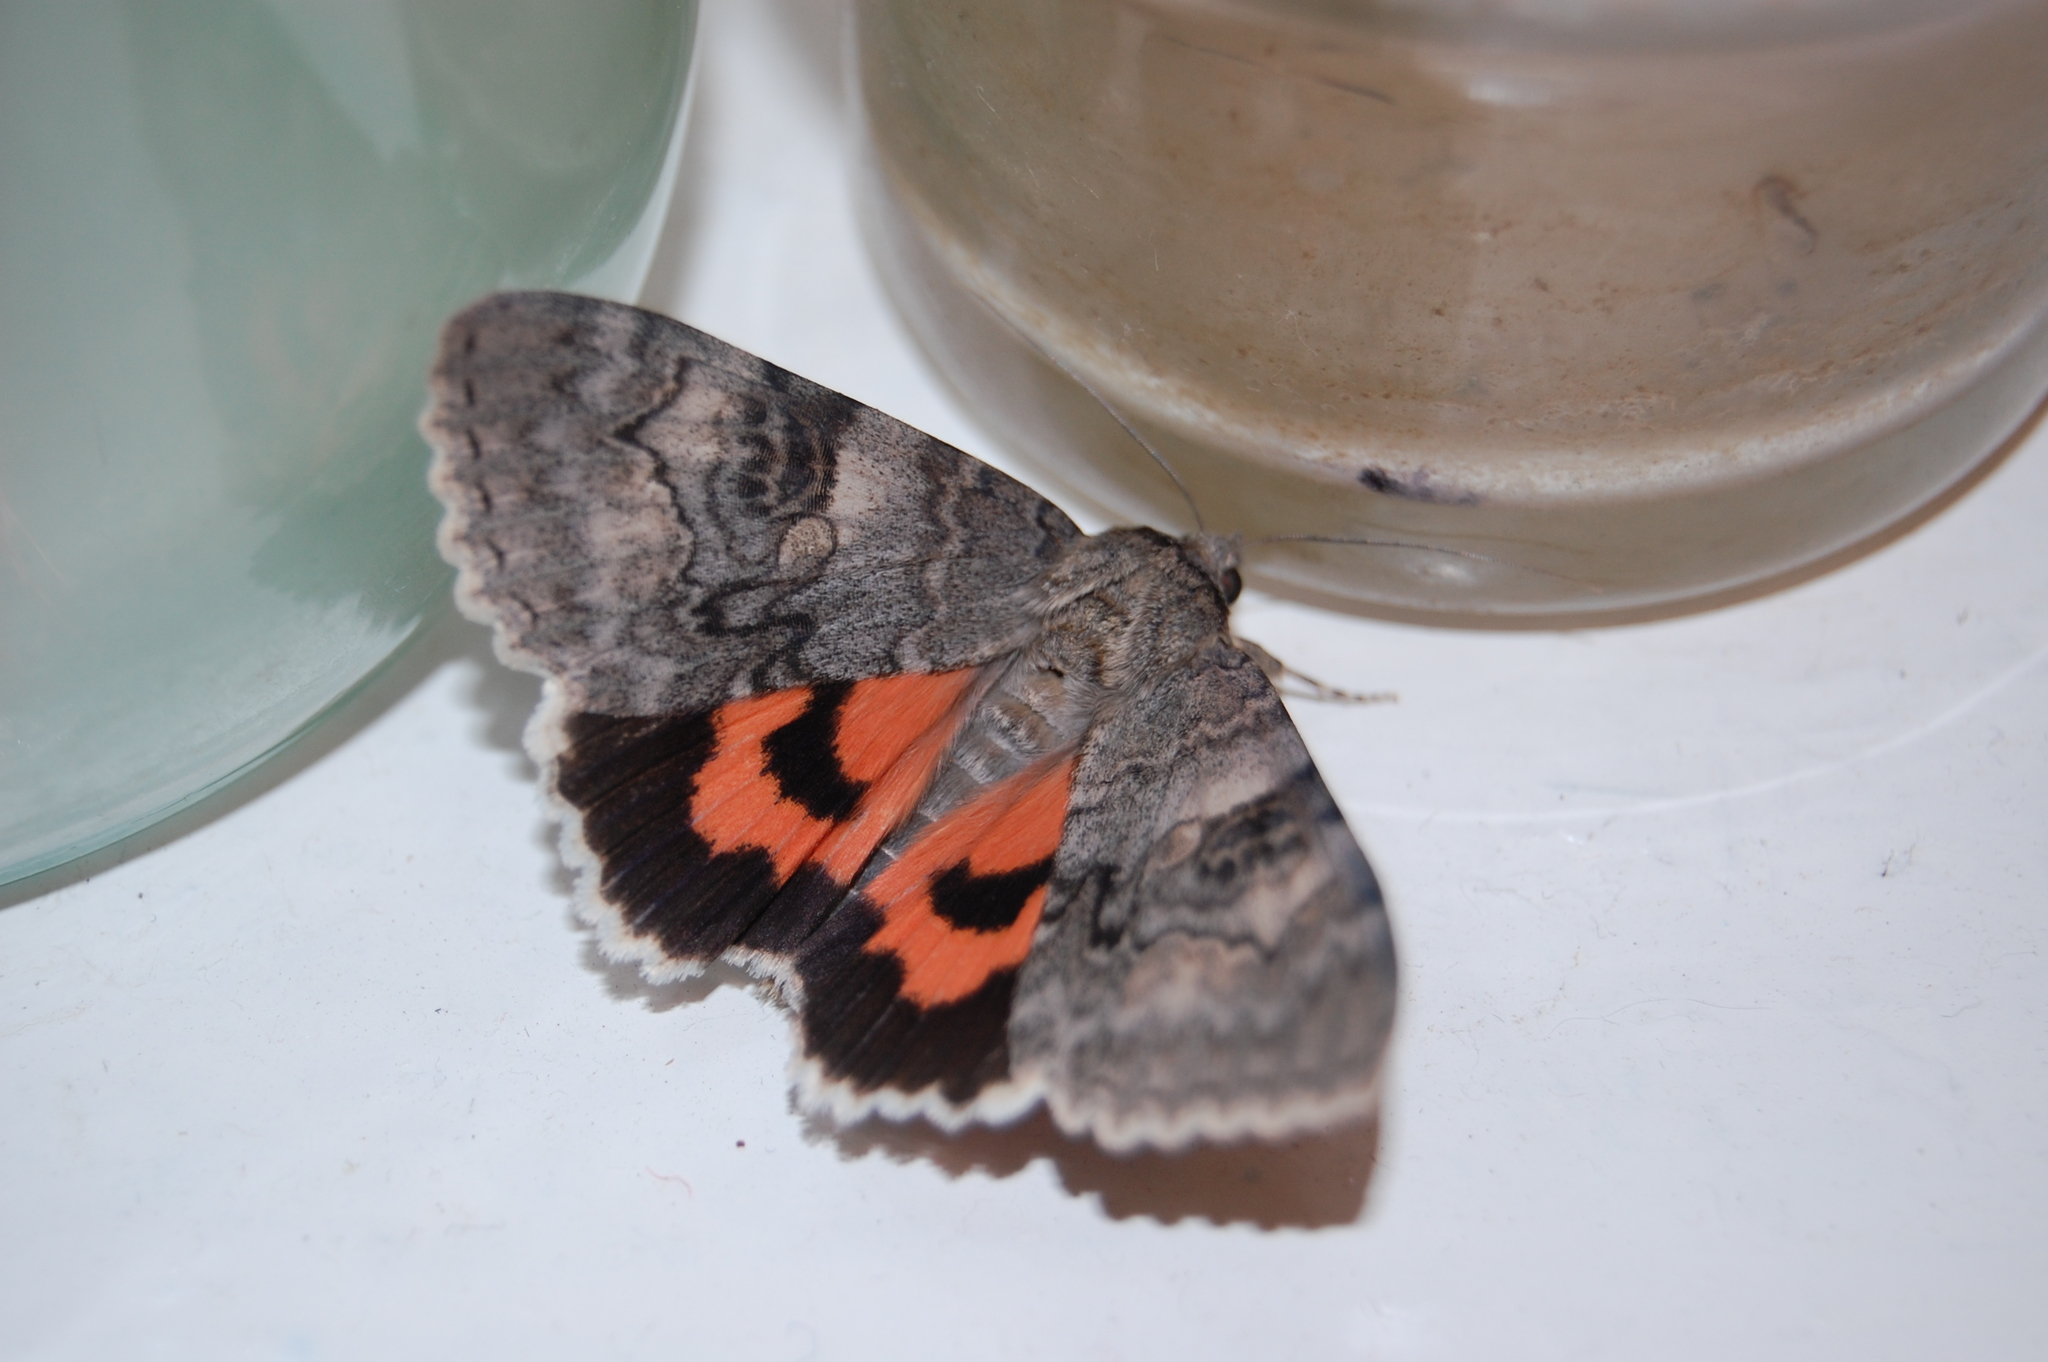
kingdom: Animalia
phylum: Arthropoda
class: Insecta
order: Lepidoptera
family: Erebidae
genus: Catocala
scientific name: Catocala nupta
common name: Red underwing
